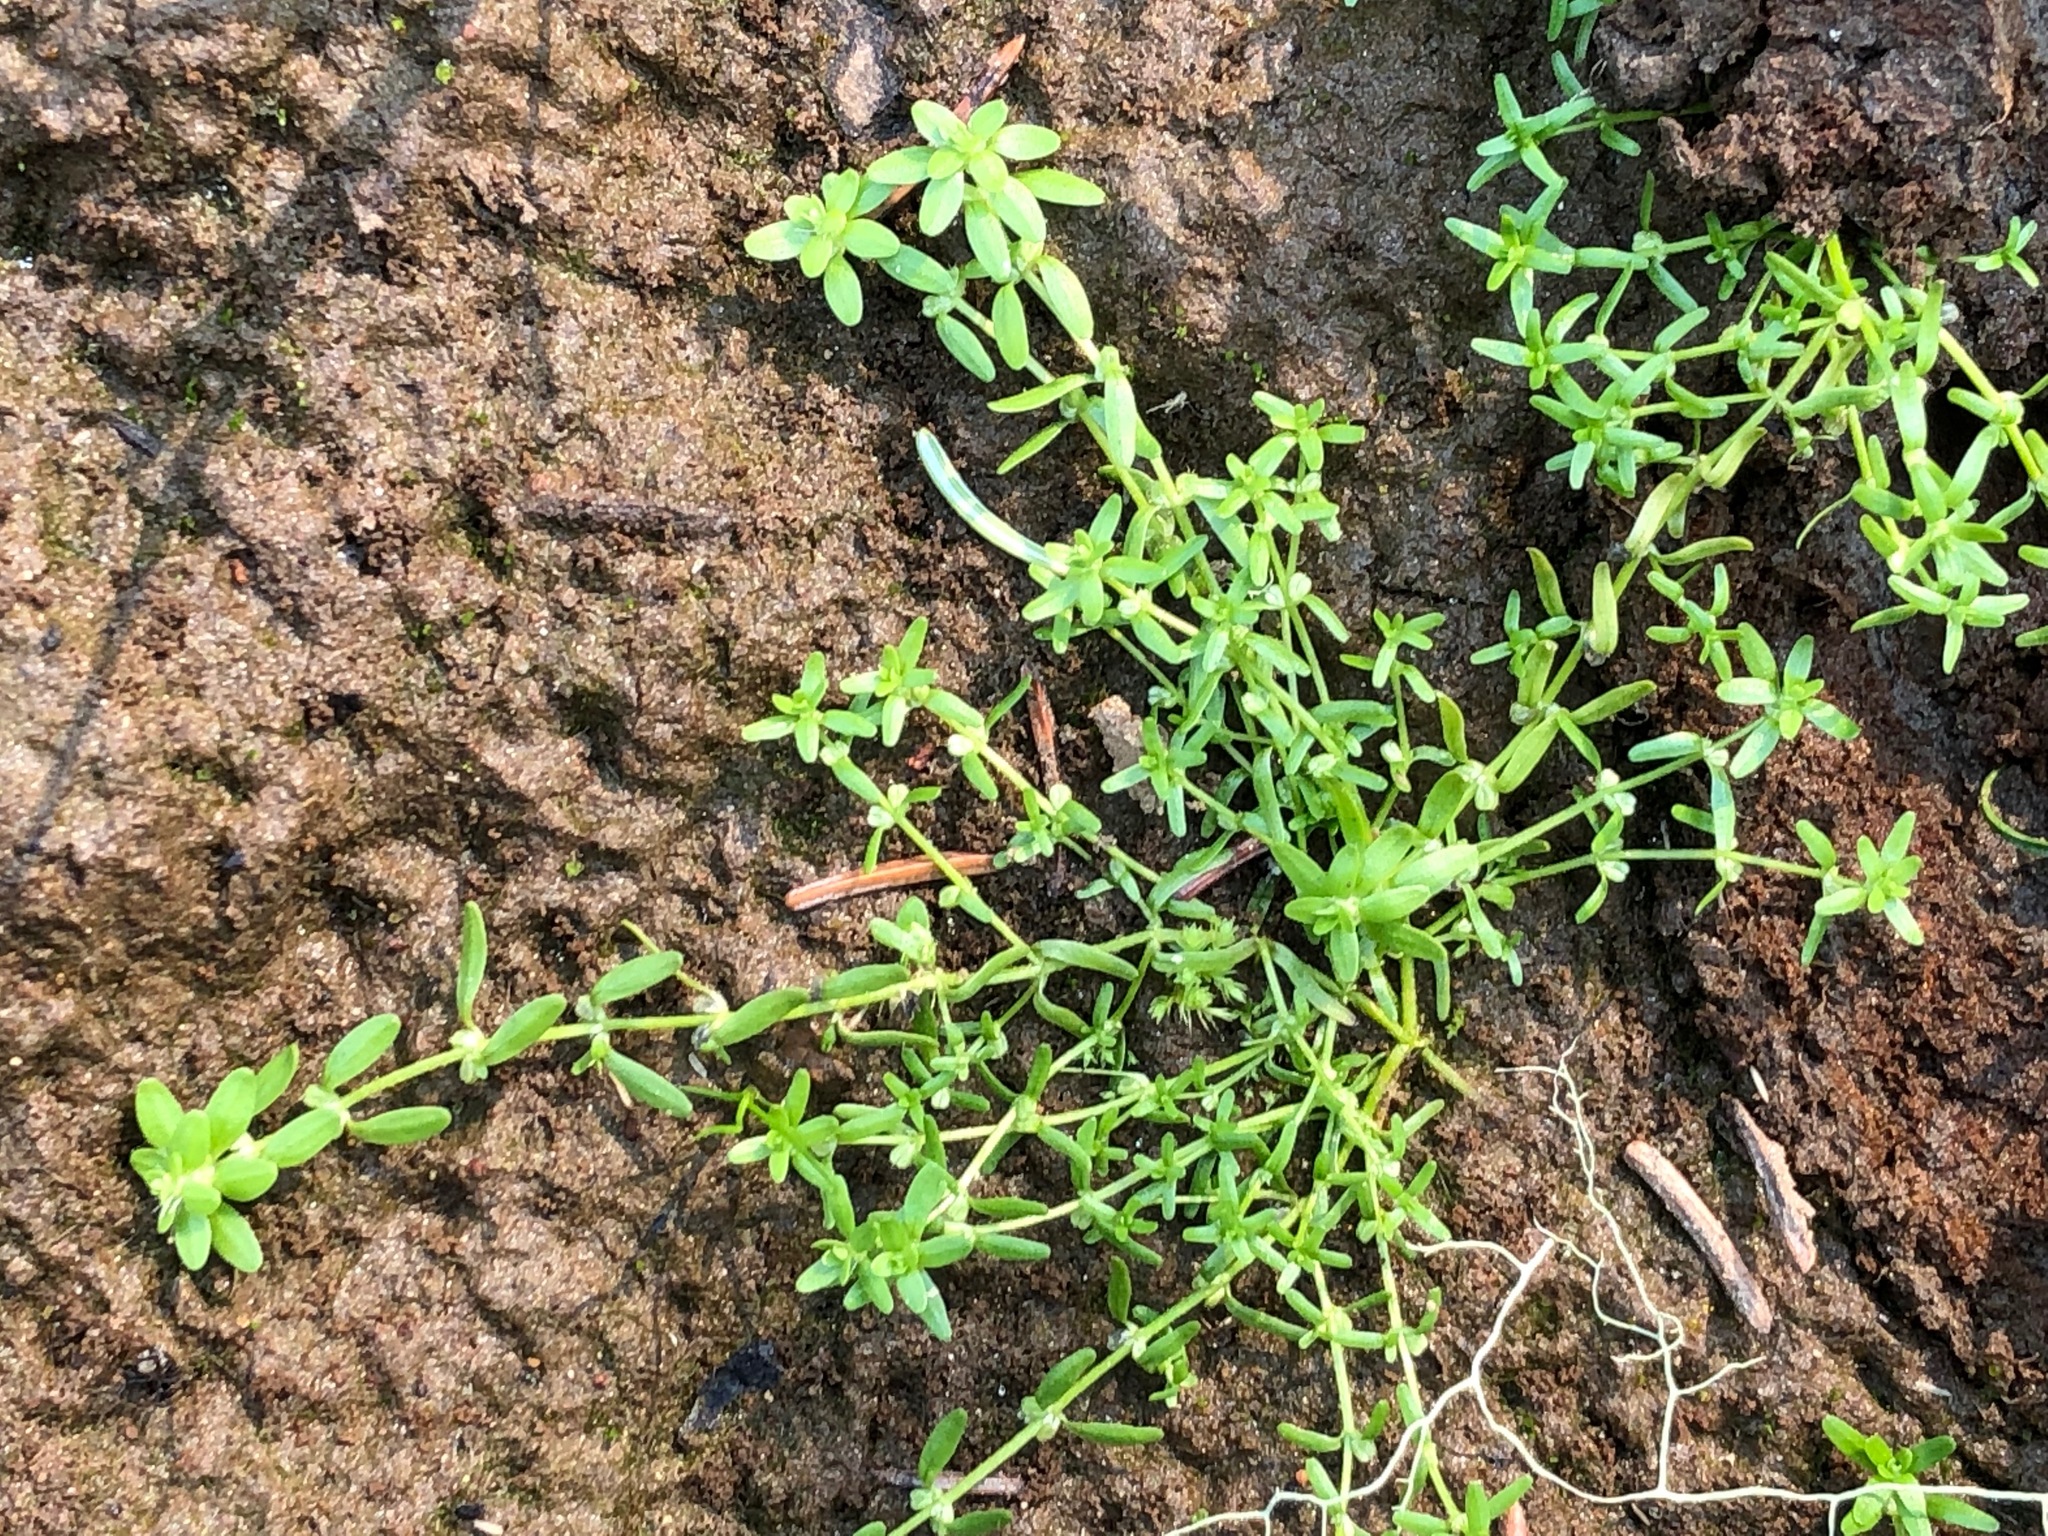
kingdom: Plantae
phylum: Tracheophyta
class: Magnoliopsida
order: Lamiales
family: Plantaginaceae
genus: Callitriche
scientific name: Callitriche palustris
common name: Spring water-starwort
